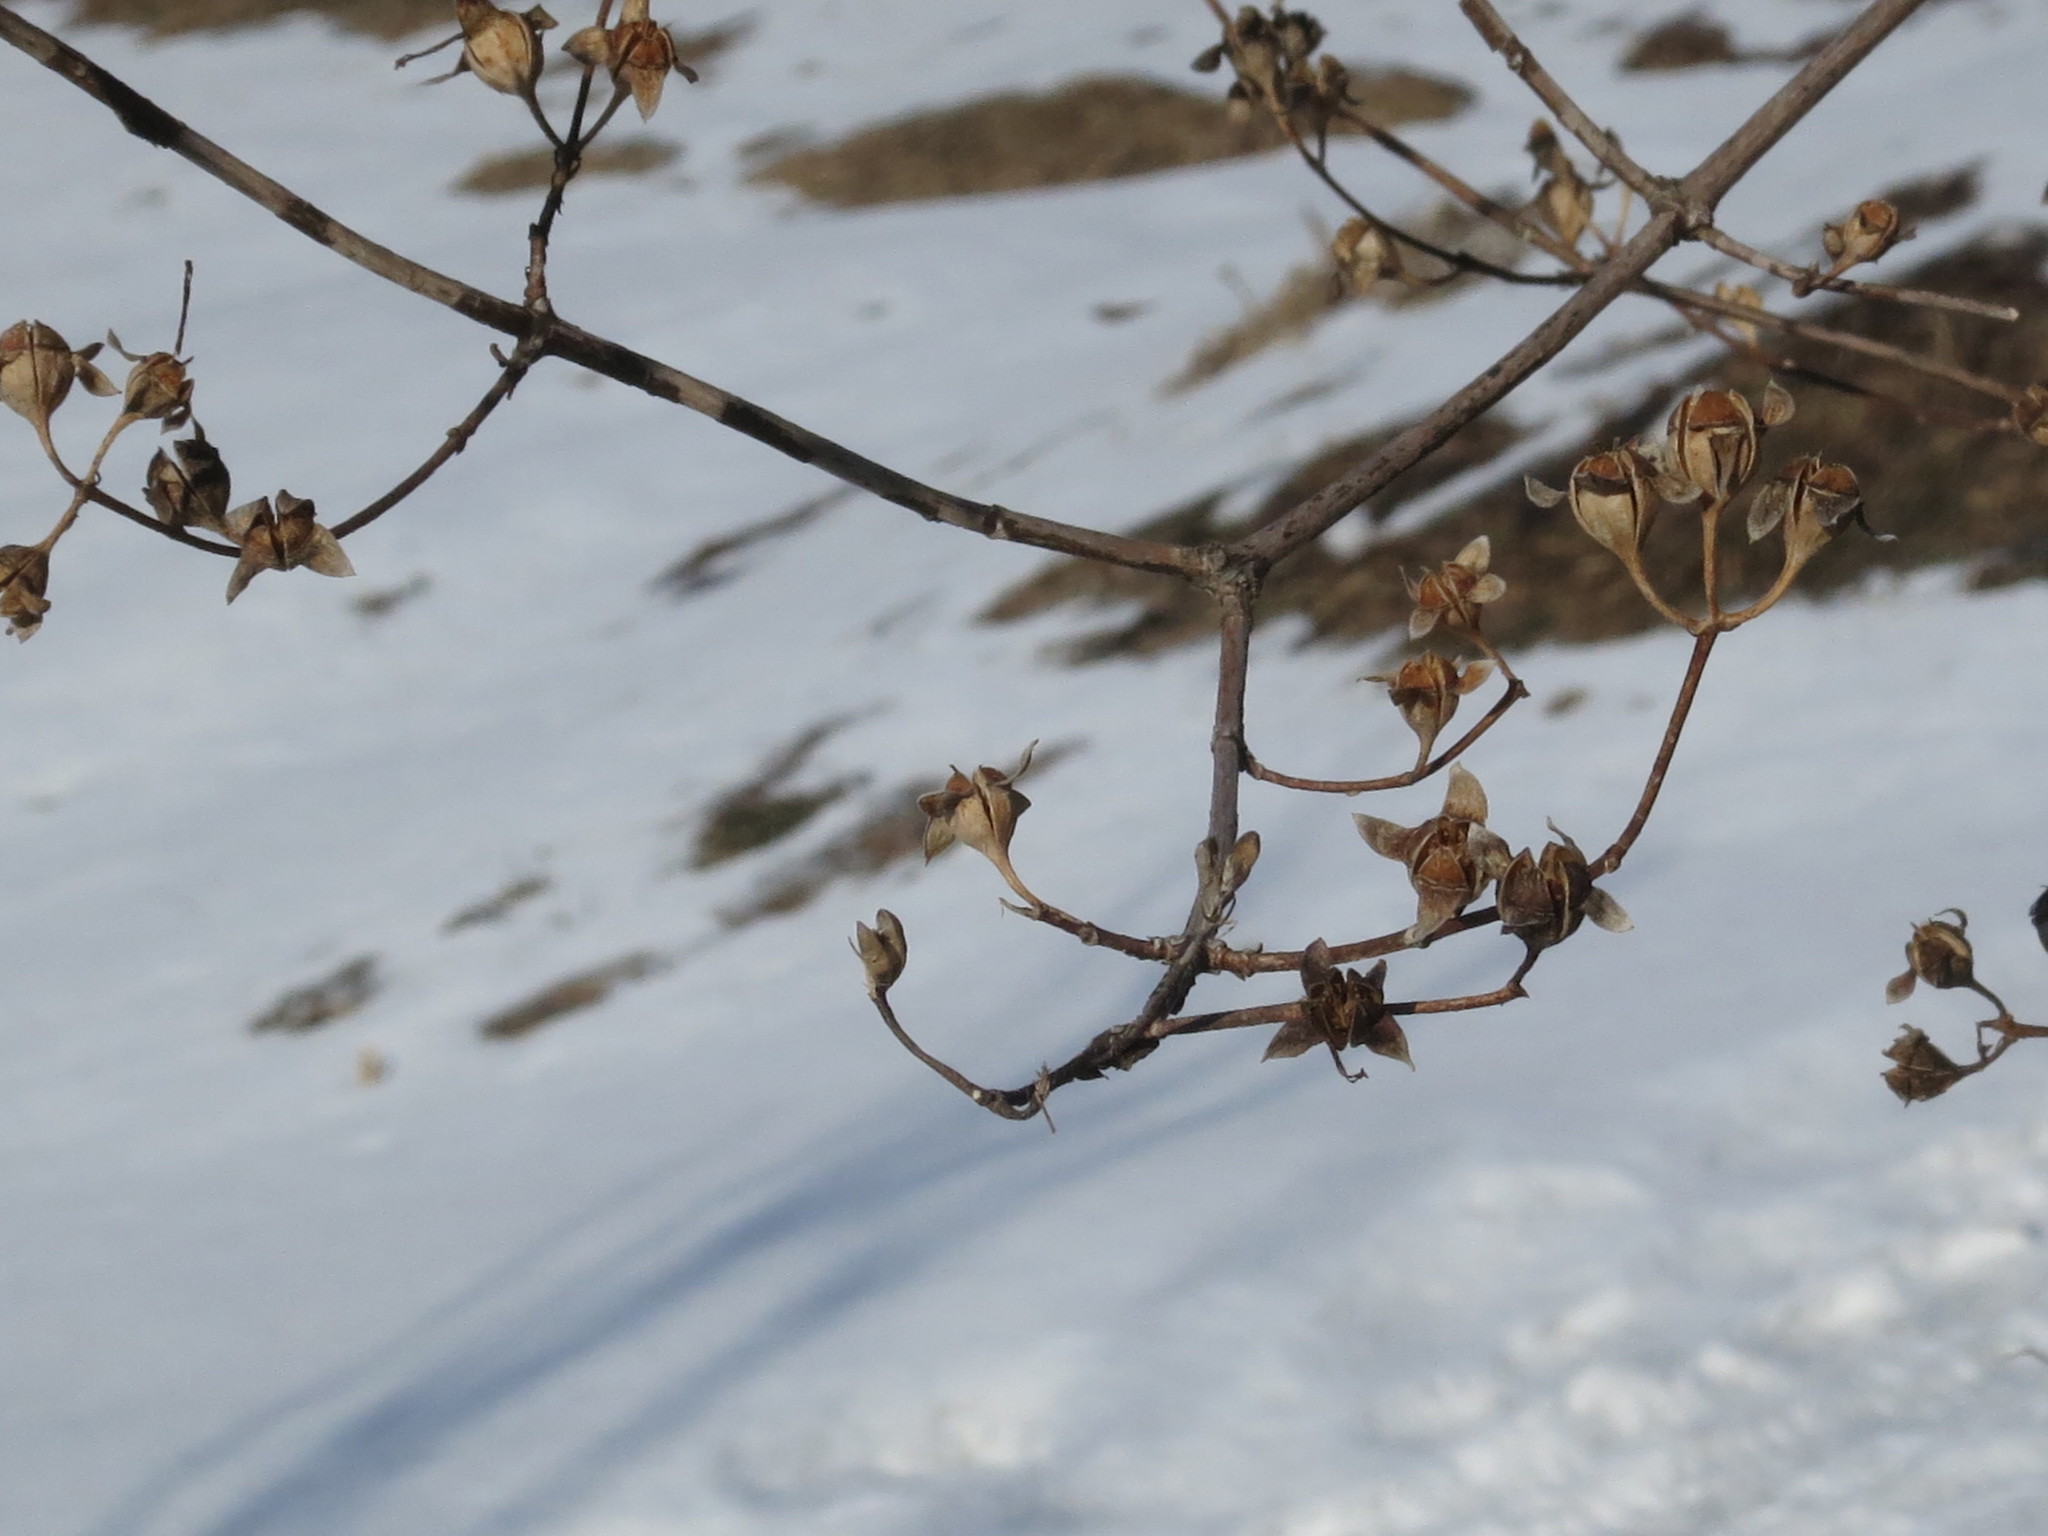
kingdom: Plantae
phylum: Tracheophyta
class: Magnoliopsida
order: Cornales
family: Hydrangeaceae
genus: Philadelphus
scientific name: Philadelphus tenuifolius
